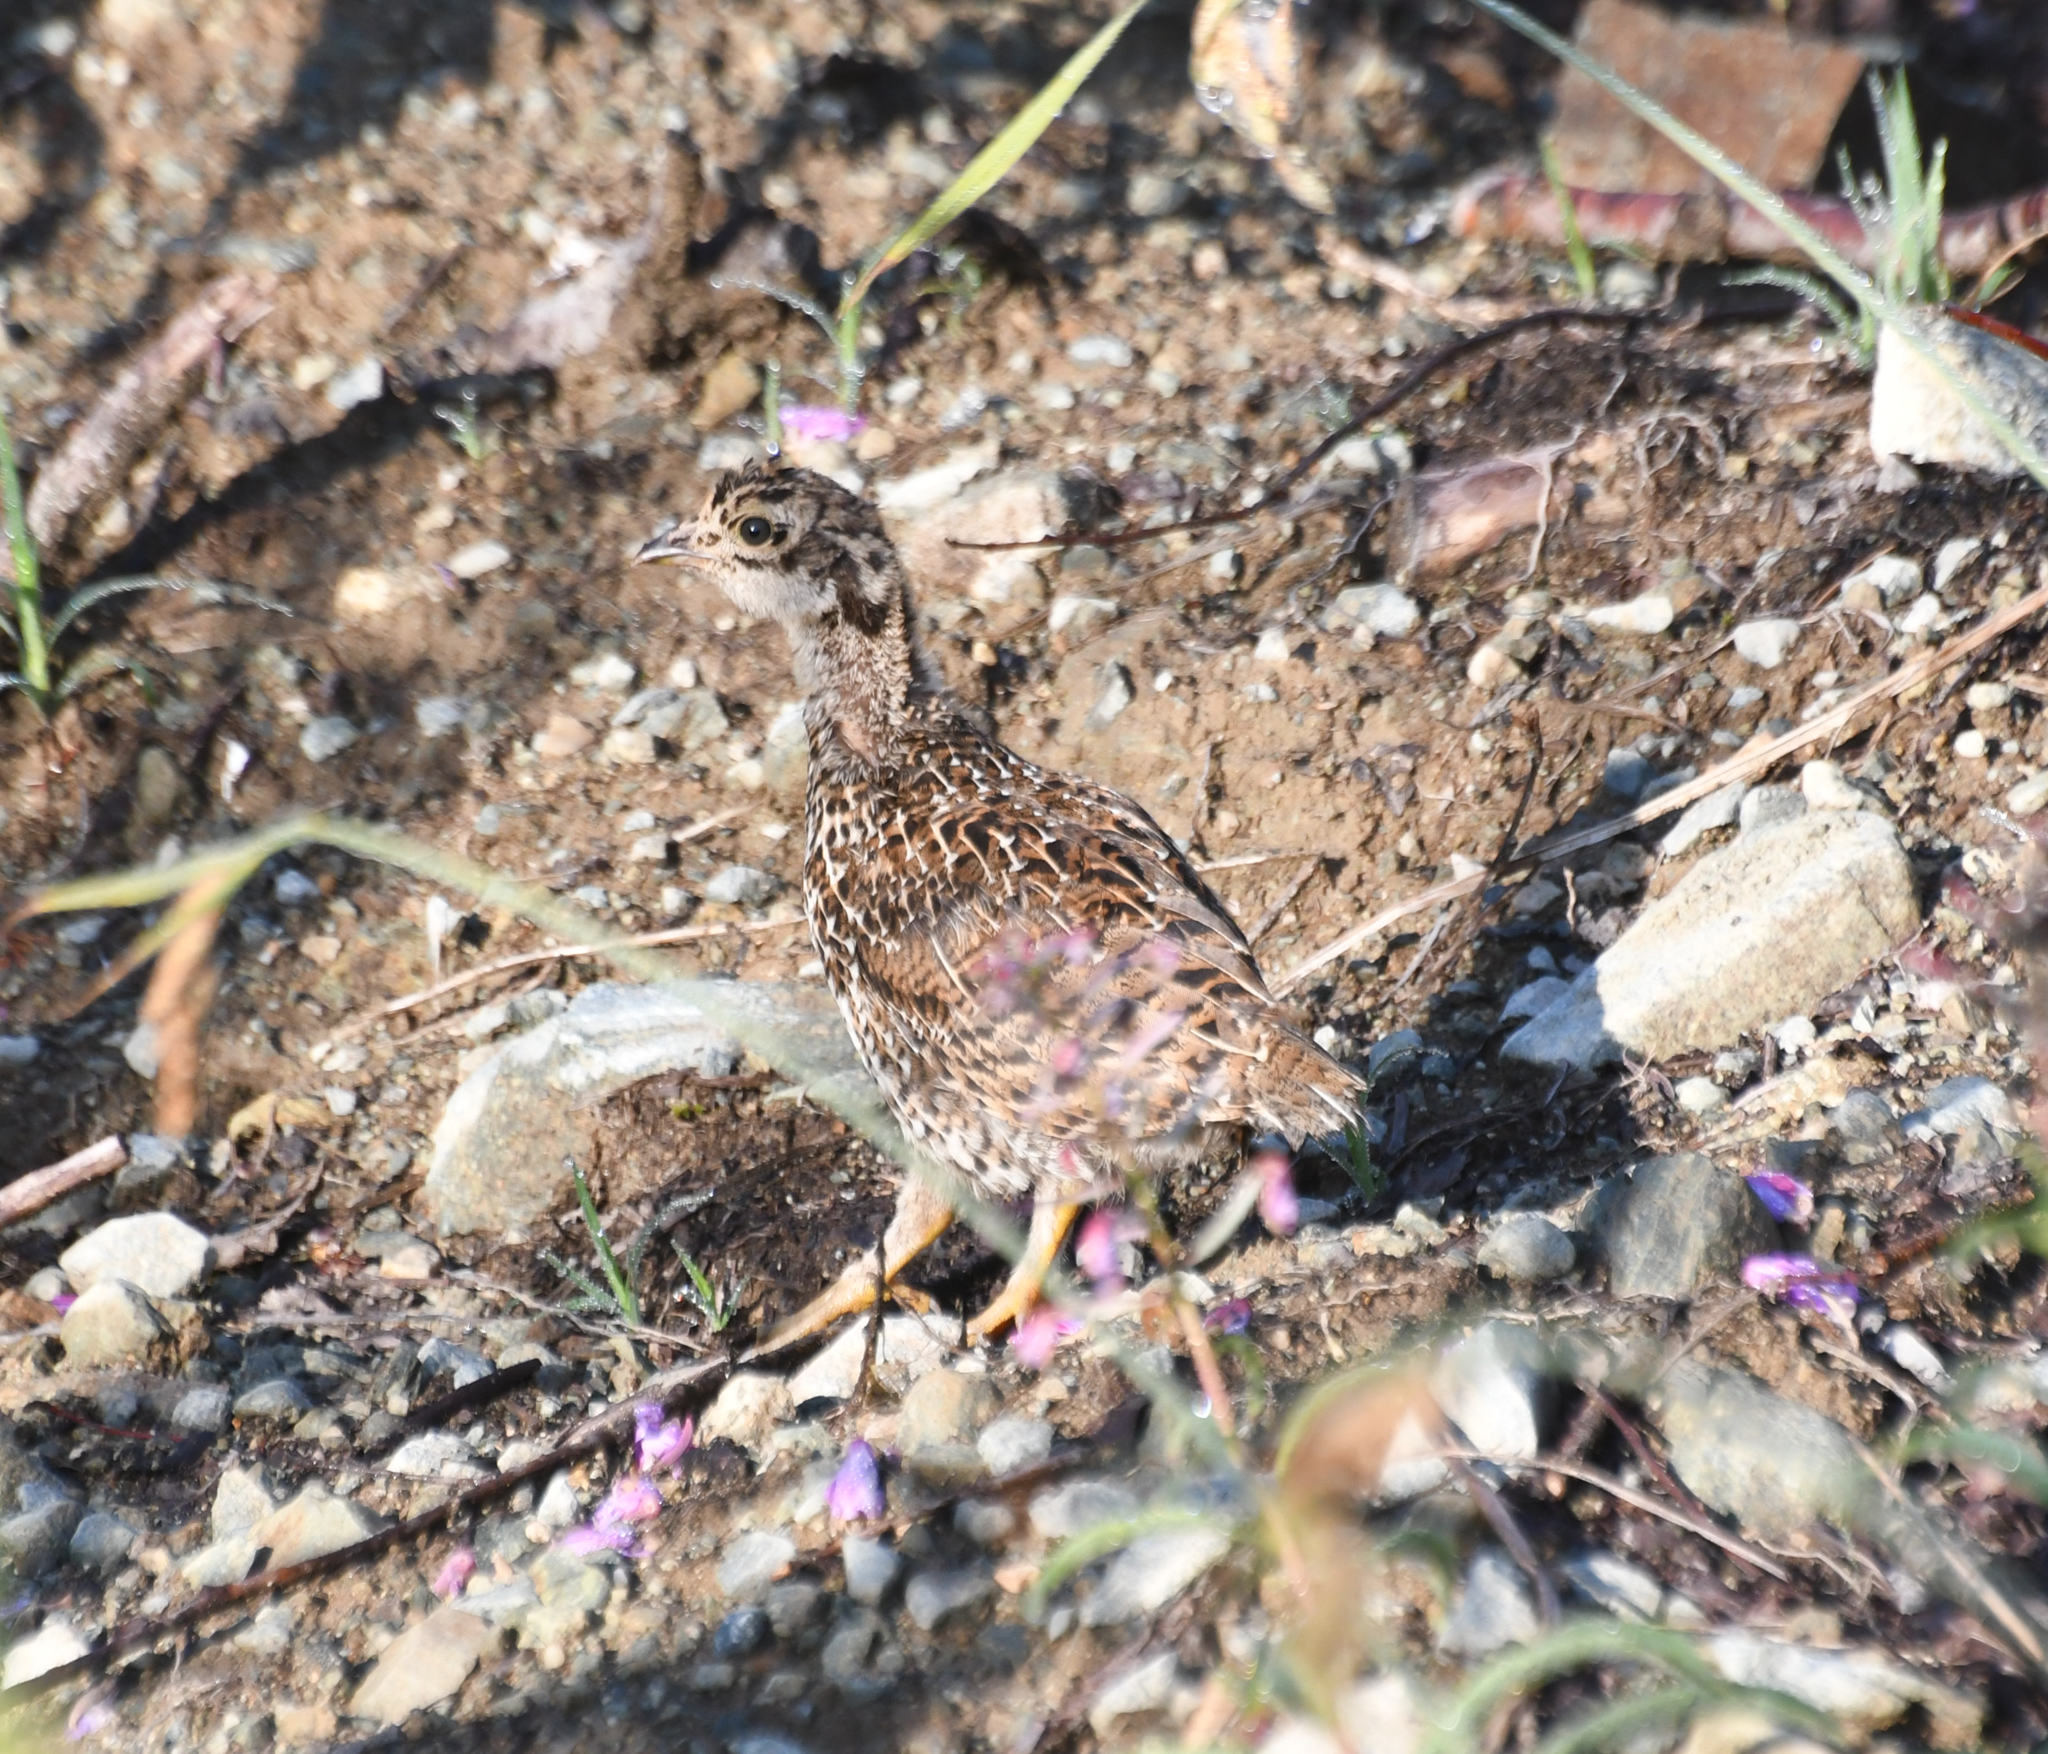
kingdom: Animalia
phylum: Chordata
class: Aves
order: Galliformes
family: Phasianidae
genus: Dendragapus
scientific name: Dendragapus fuliginosus
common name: Sooty grouse
